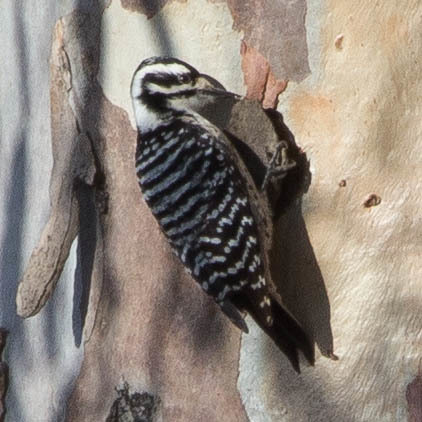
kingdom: Animalia
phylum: Chordata
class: Aves
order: Piciformes
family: Picidae
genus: Dryobates
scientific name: Dryobates nuttallii
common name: Nuttall's woodpecker
